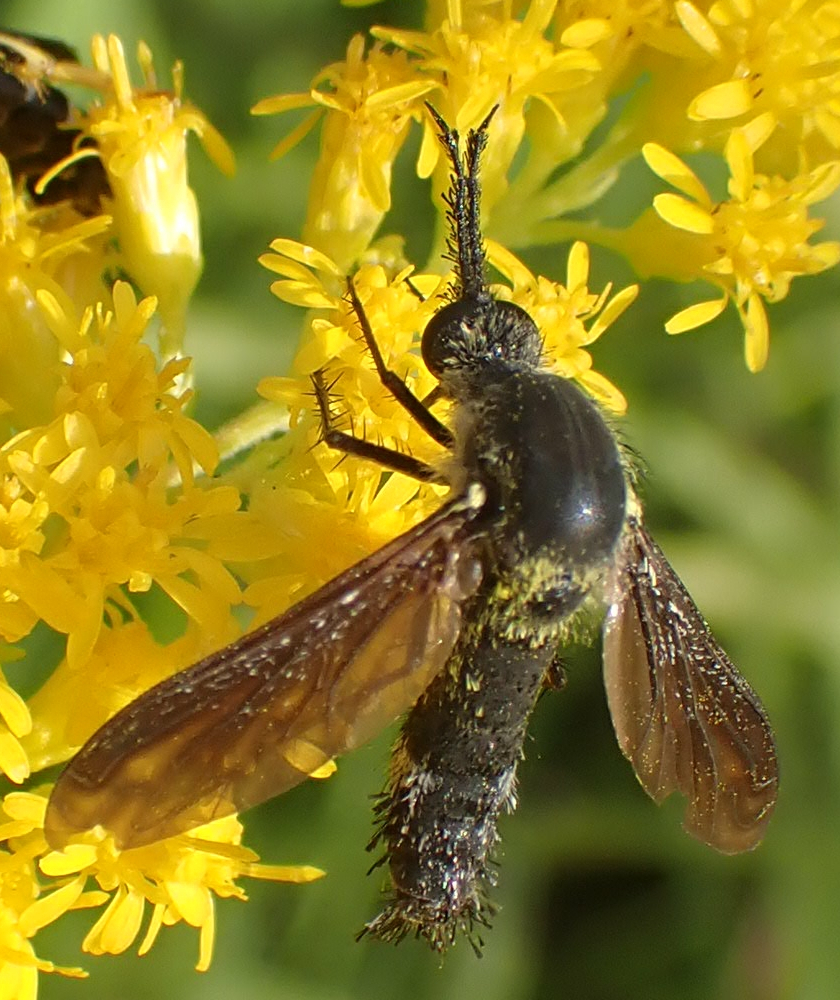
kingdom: Animalia
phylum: Arthropoda
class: Insecta
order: Diptera
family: Bombyliidae
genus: Lepidophora
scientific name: Lepidophora lutea
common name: Hunchback bee fly
